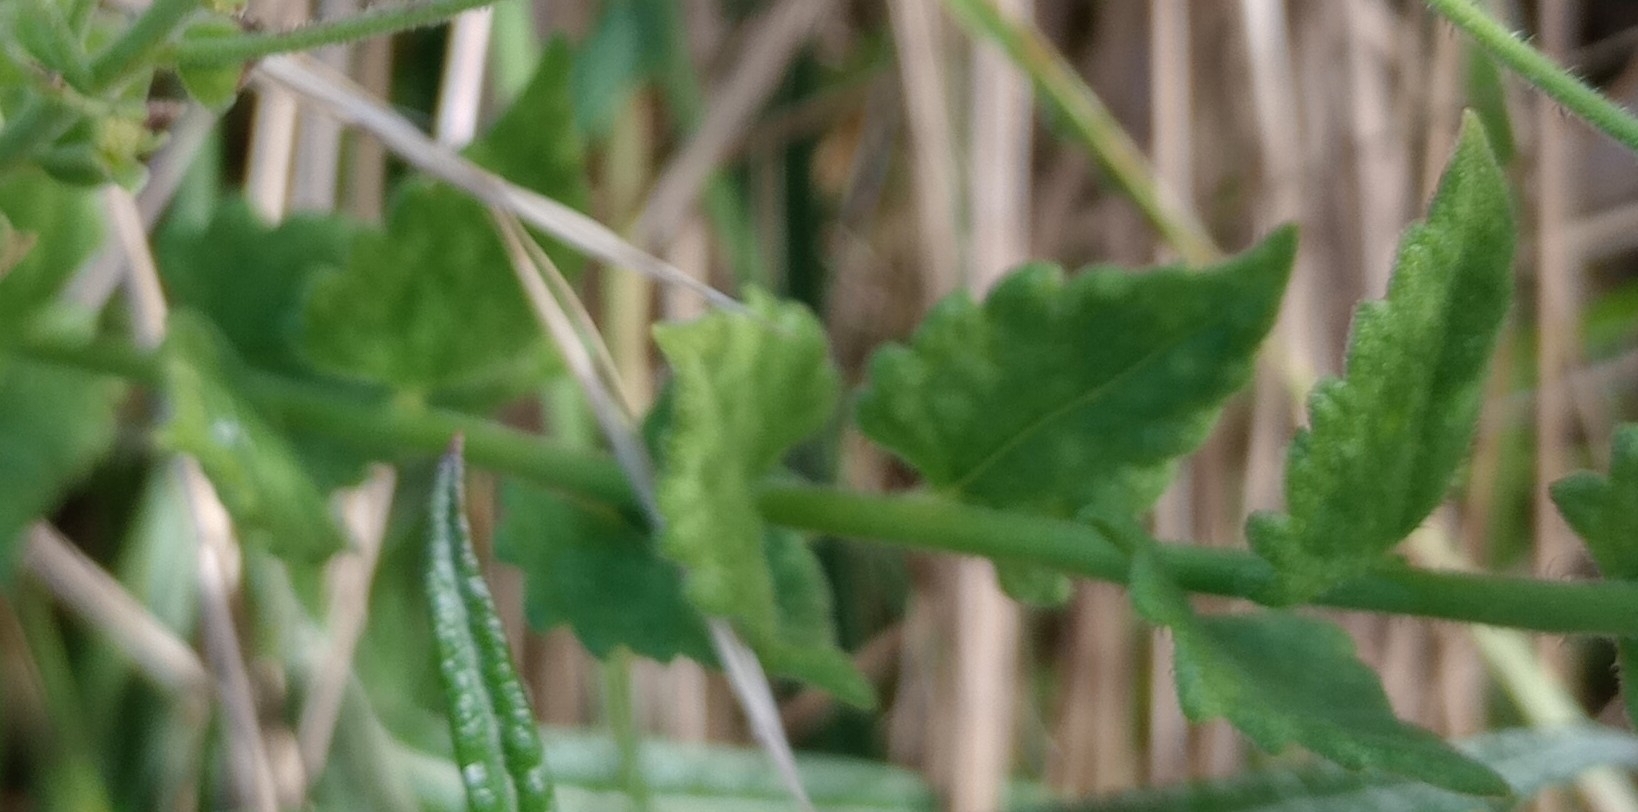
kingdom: Plantae
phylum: Tracheophyta
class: Magnoliopsida
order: Asterales
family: Asteraceae
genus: Chromolaena
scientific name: Chromolaena hirsuta
